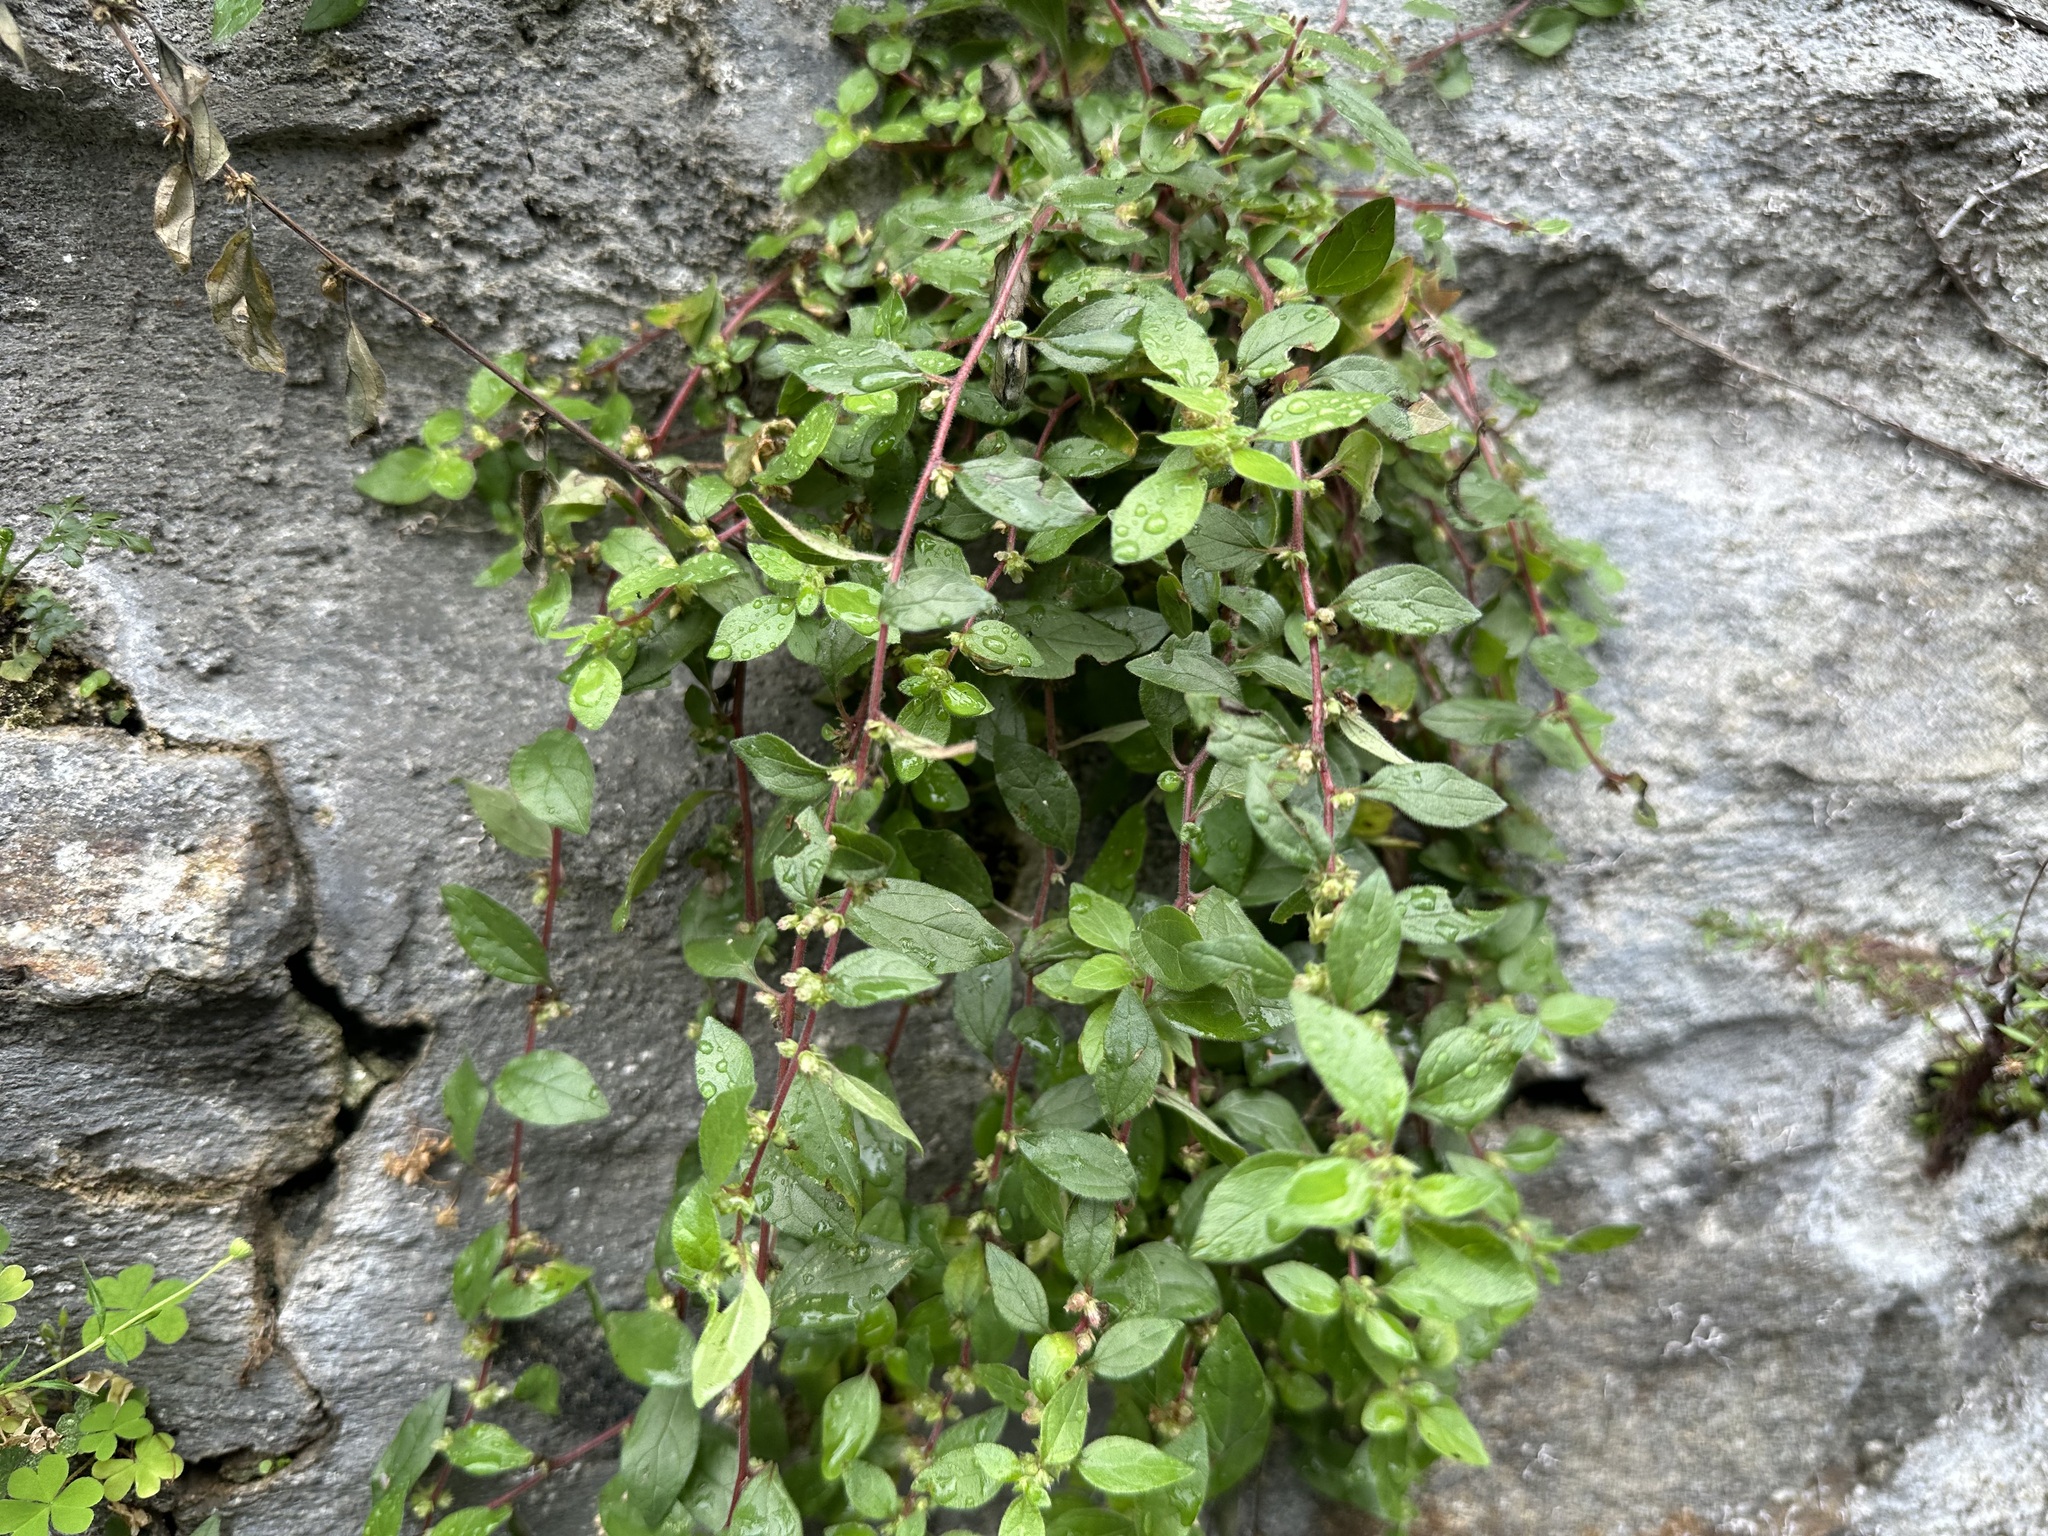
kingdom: Plantae
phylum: Tracheophyta
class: Magnoliopsida
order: Rosales
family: Urticaceae
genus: Parietaria
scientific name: Parietaria judaica
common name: Pellitory-of-the-wall
